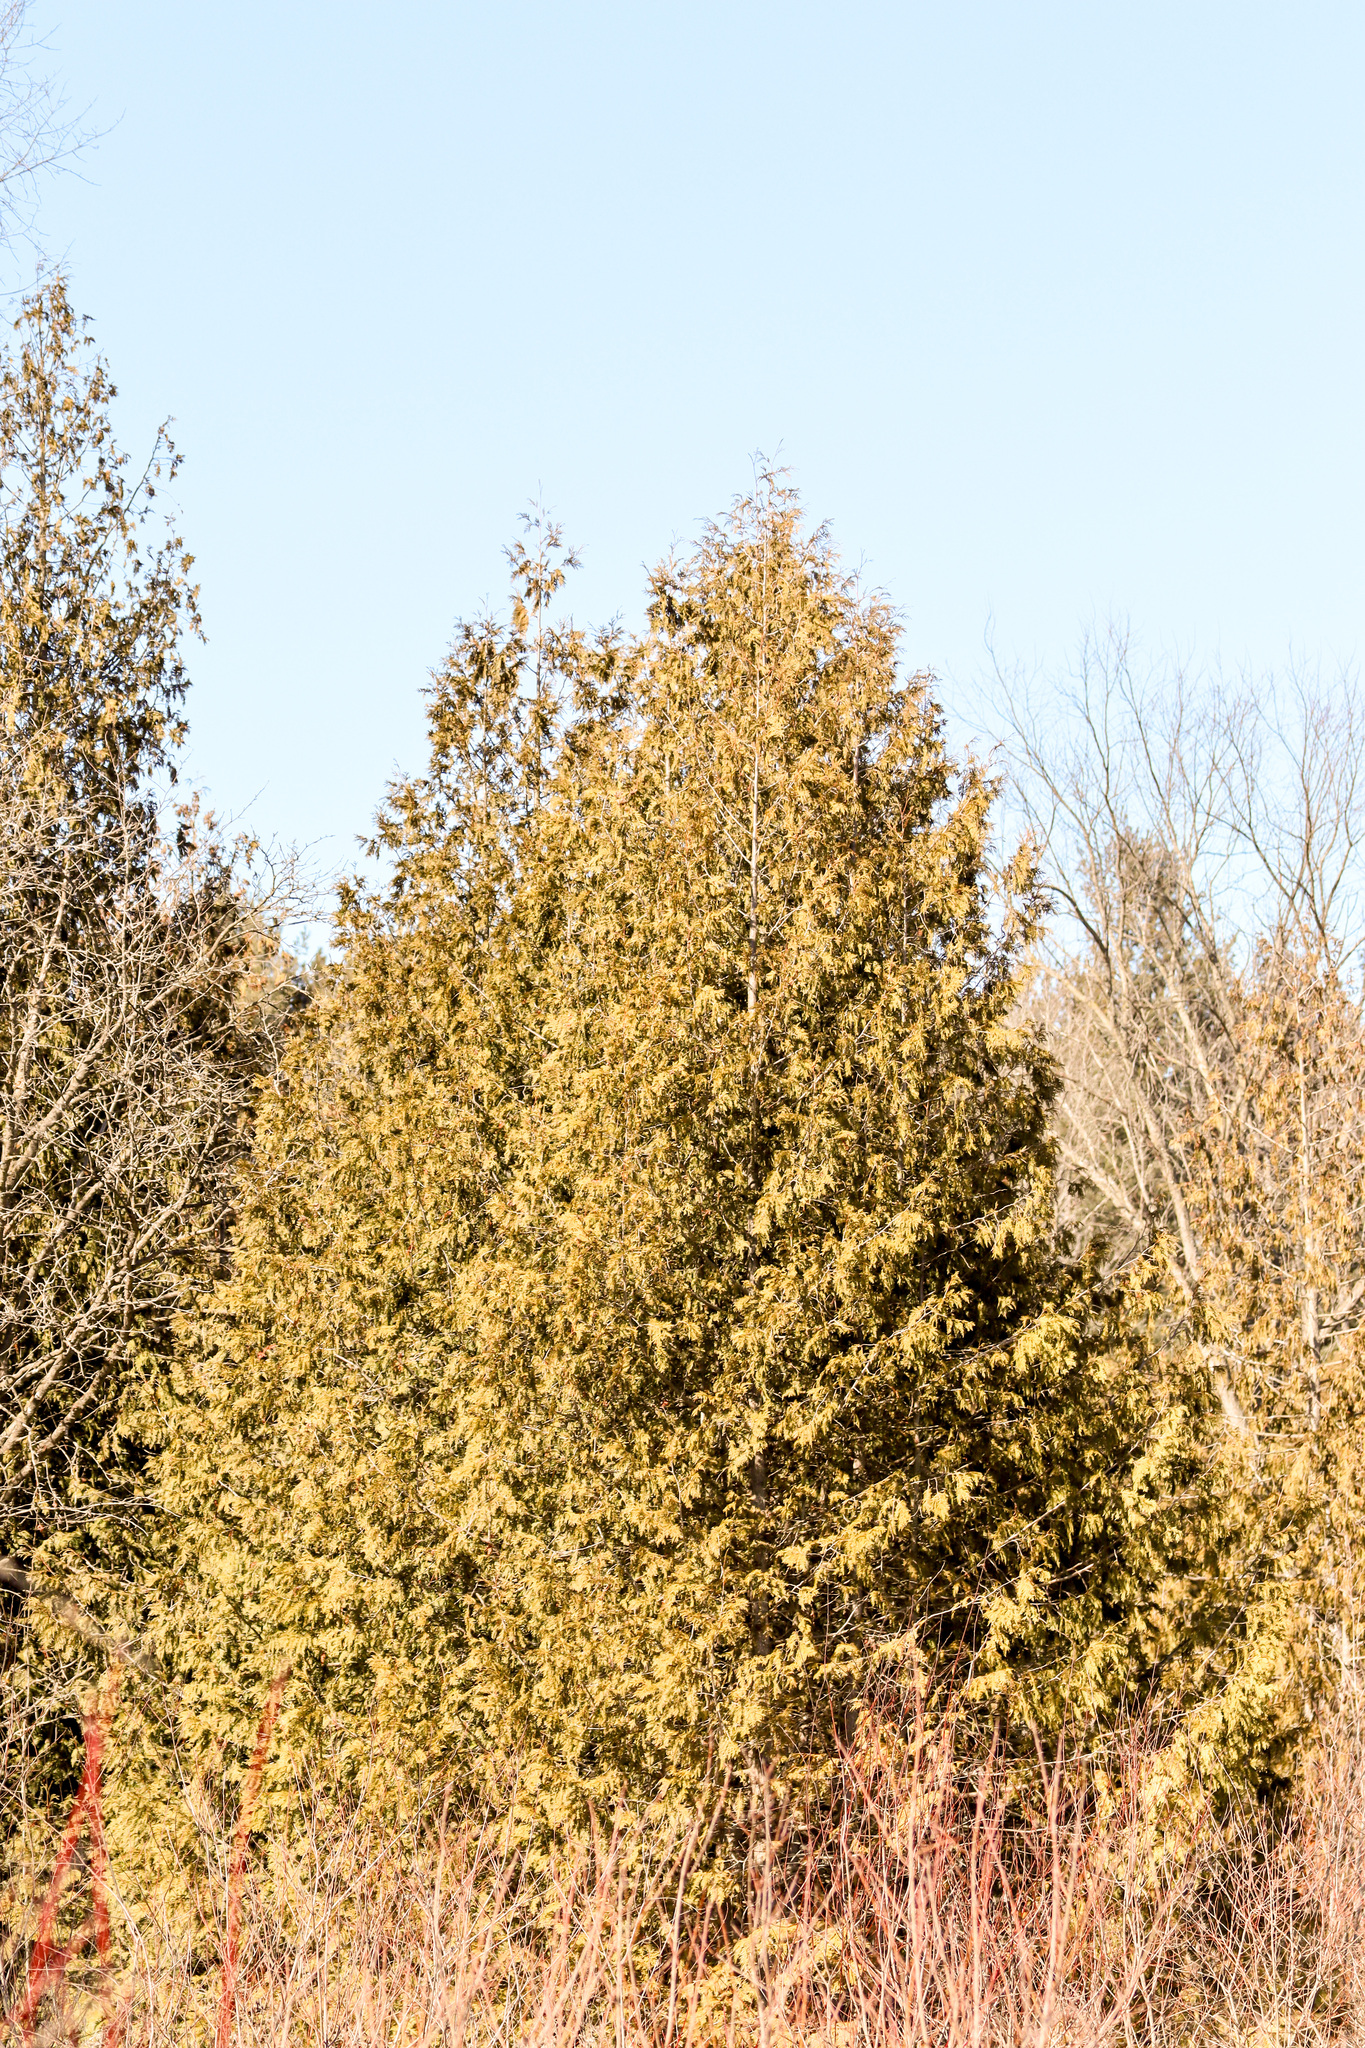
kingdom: Plantae
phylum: Tracheophyta
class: Pinopsida
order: Pinales
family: Cupressaceae
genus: Thuja
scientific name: Thuja occidentalis
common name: Northern white-cedar
